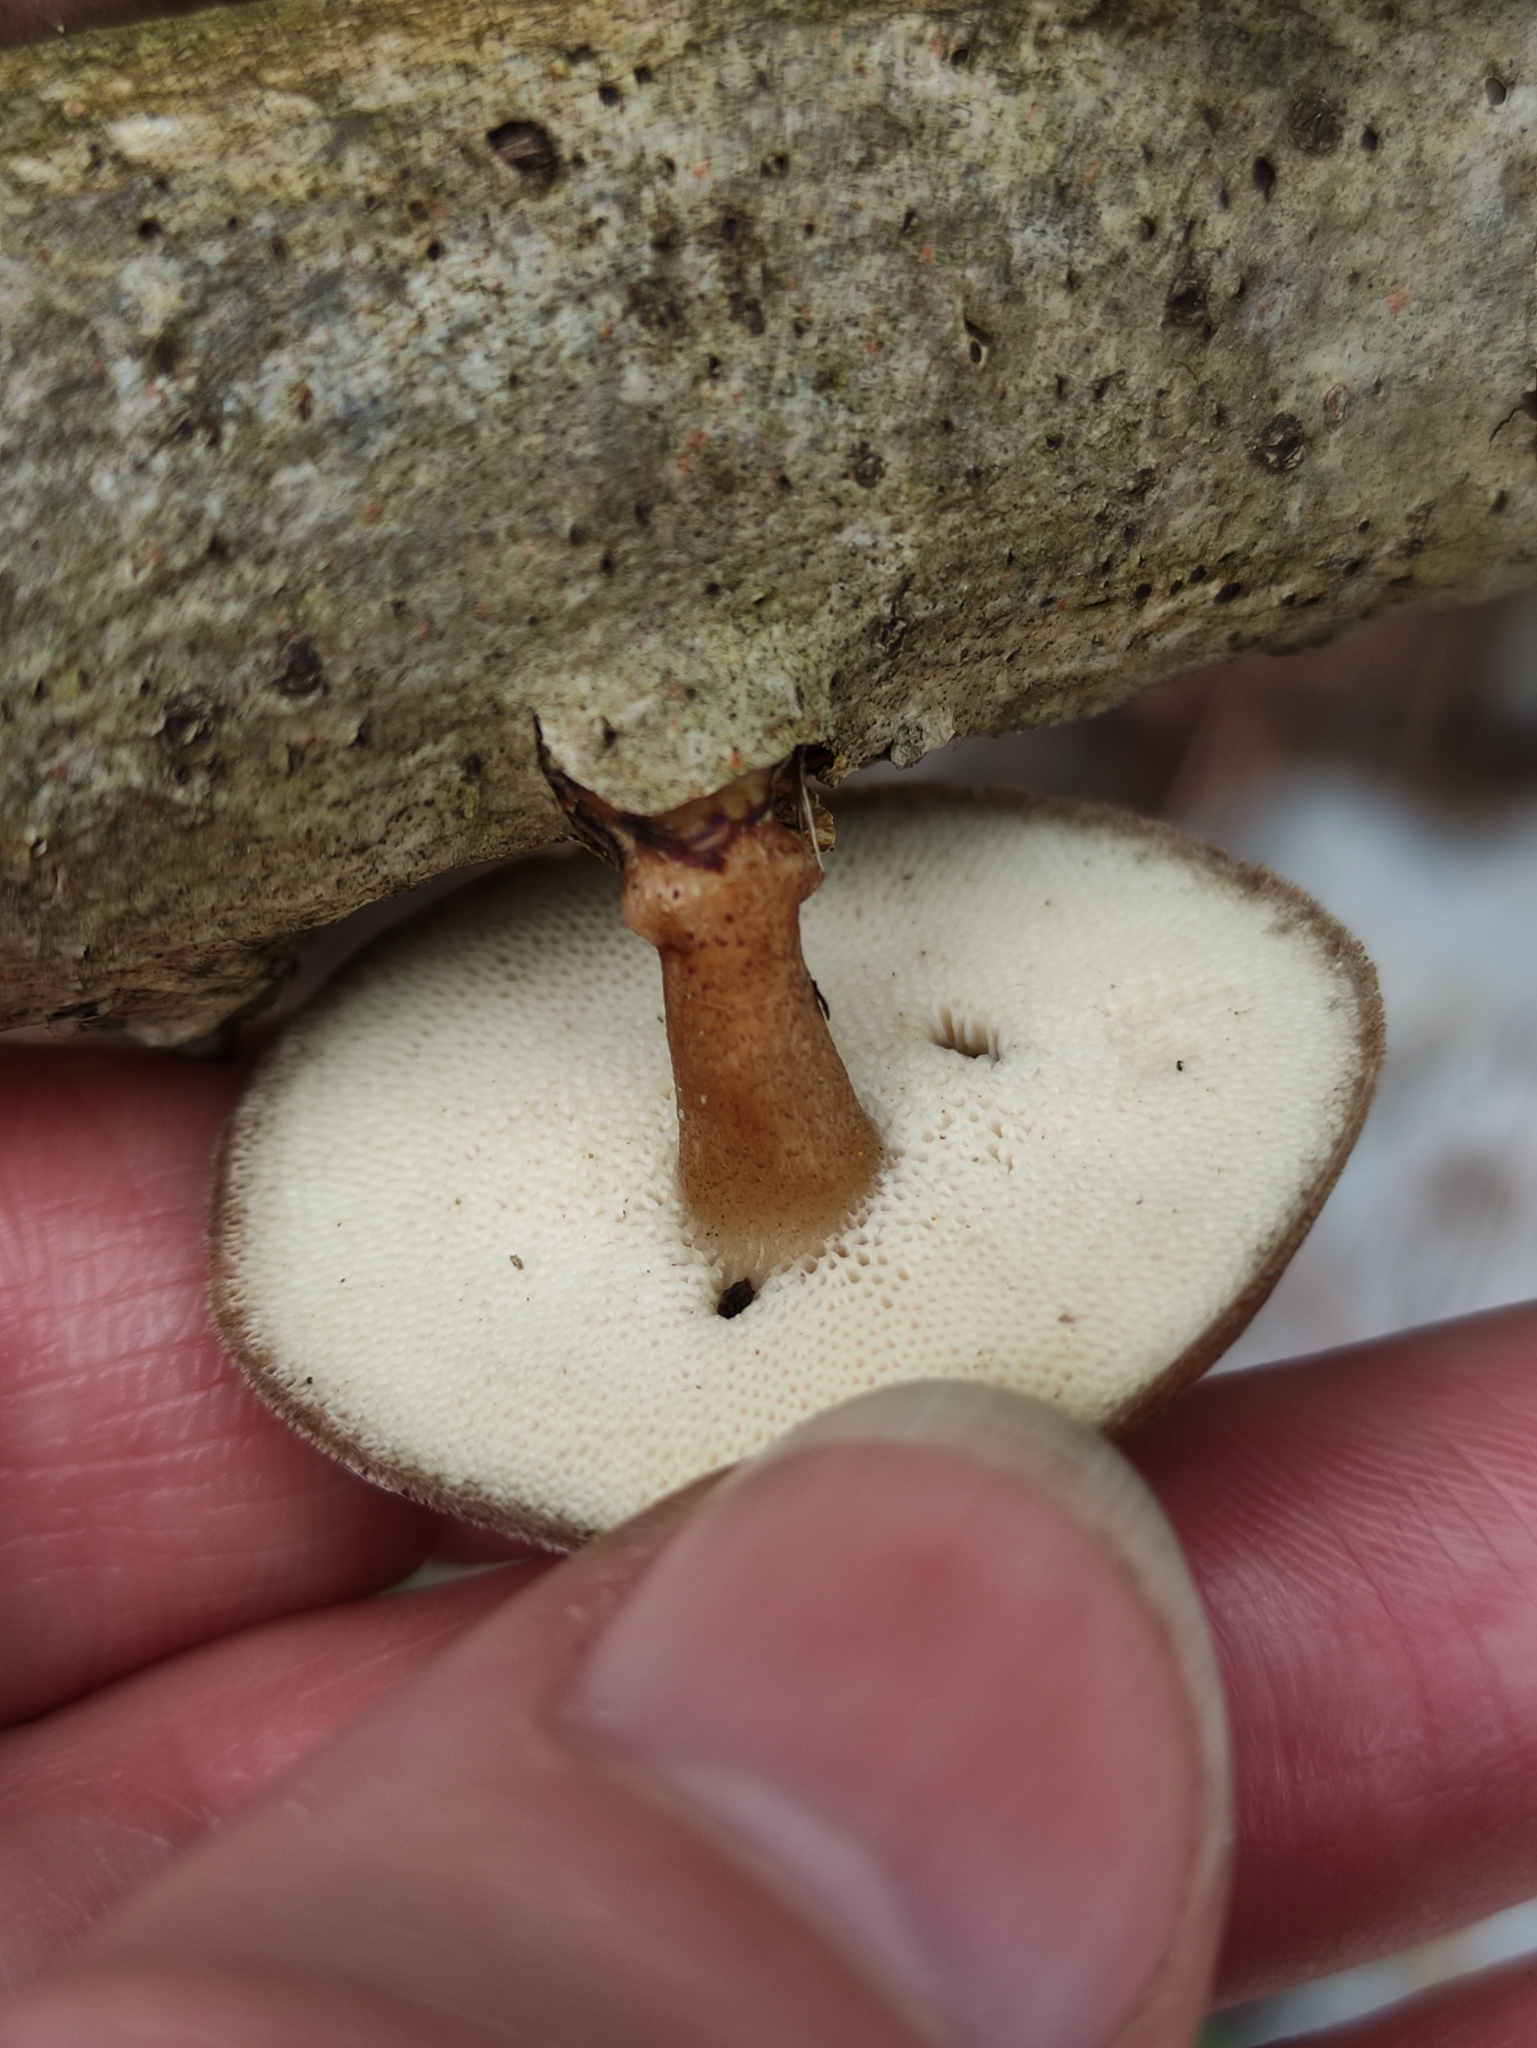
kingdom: Fungi
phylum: Basidiomycota
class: Agaricomycetes
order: Polyporales
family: Polyporaceae
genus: Lentinus
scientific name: Lentinus brumalis
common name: Winter polypore
